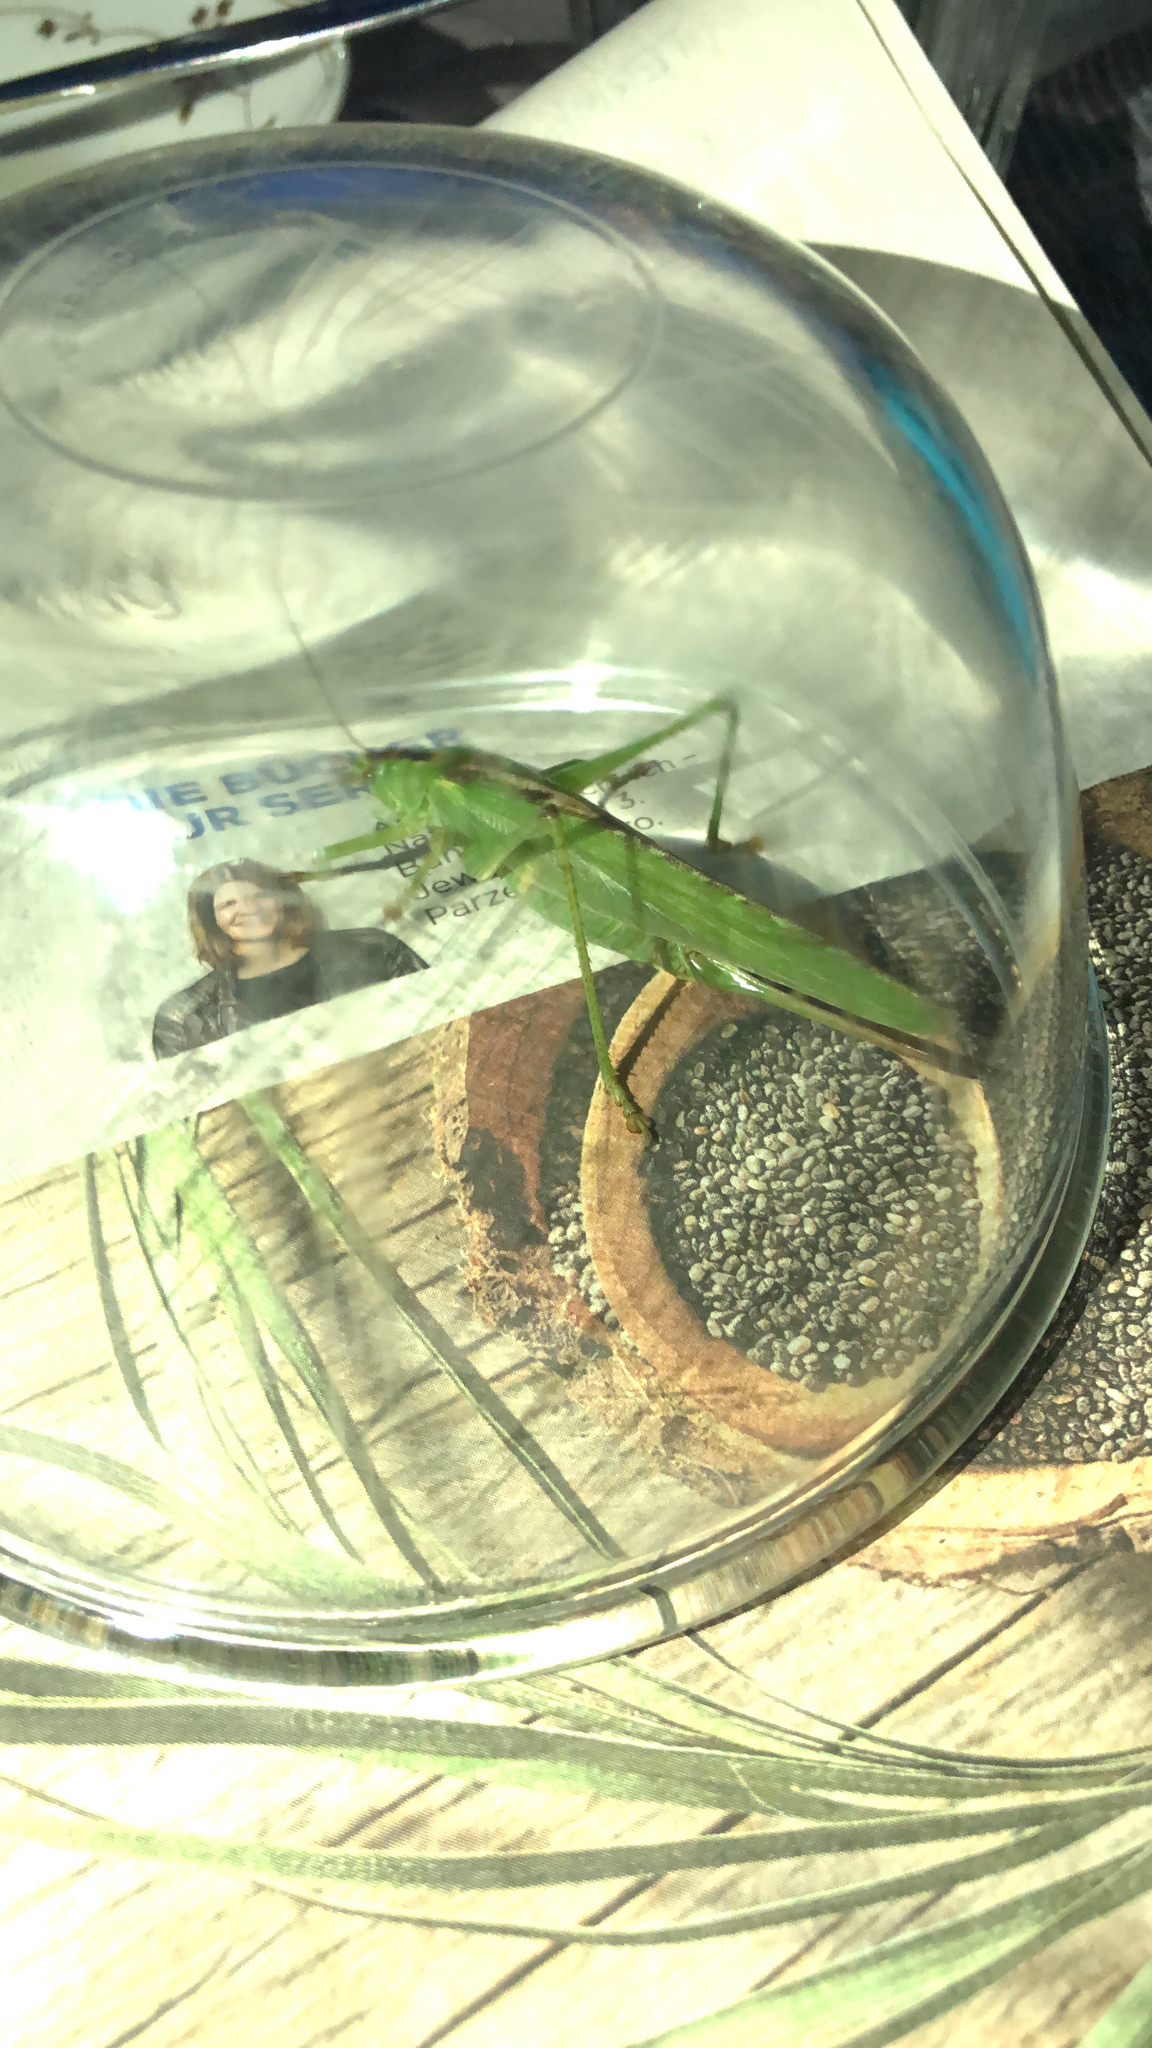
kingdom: Animalia
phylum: Arthropoda
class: Insecta
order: Orthoptera
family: Tettigoniidae
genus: Tettigonia
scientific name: Tettigonia viridissima
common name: Great green bush-cricket
